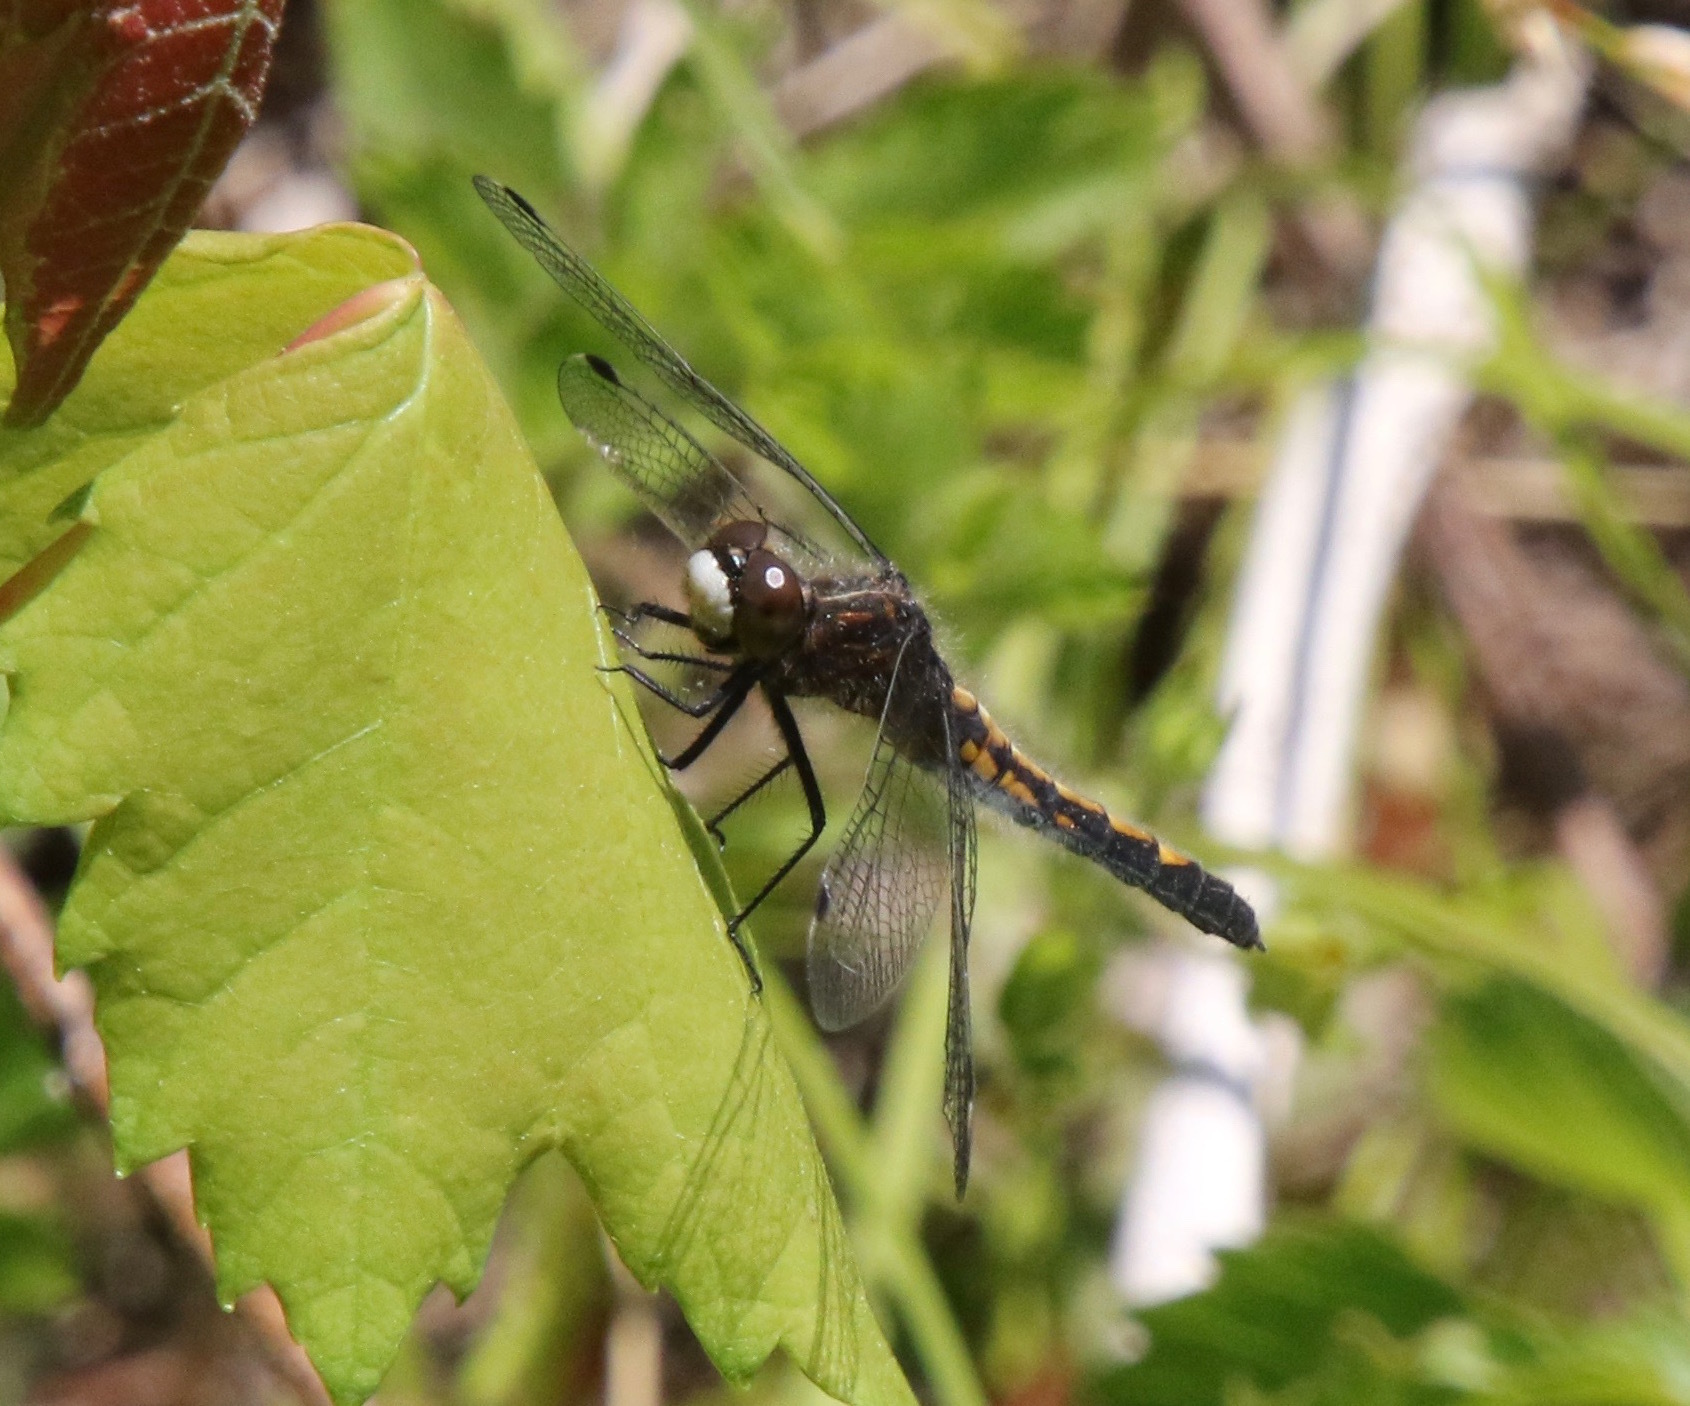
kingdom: Animalia
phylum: Arthropoda
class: Insecta
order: Odonata
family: Libellulidae
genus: Leucorrhinia
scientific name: Leucorrhinia intacta
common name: Dot-tailed whiteface
